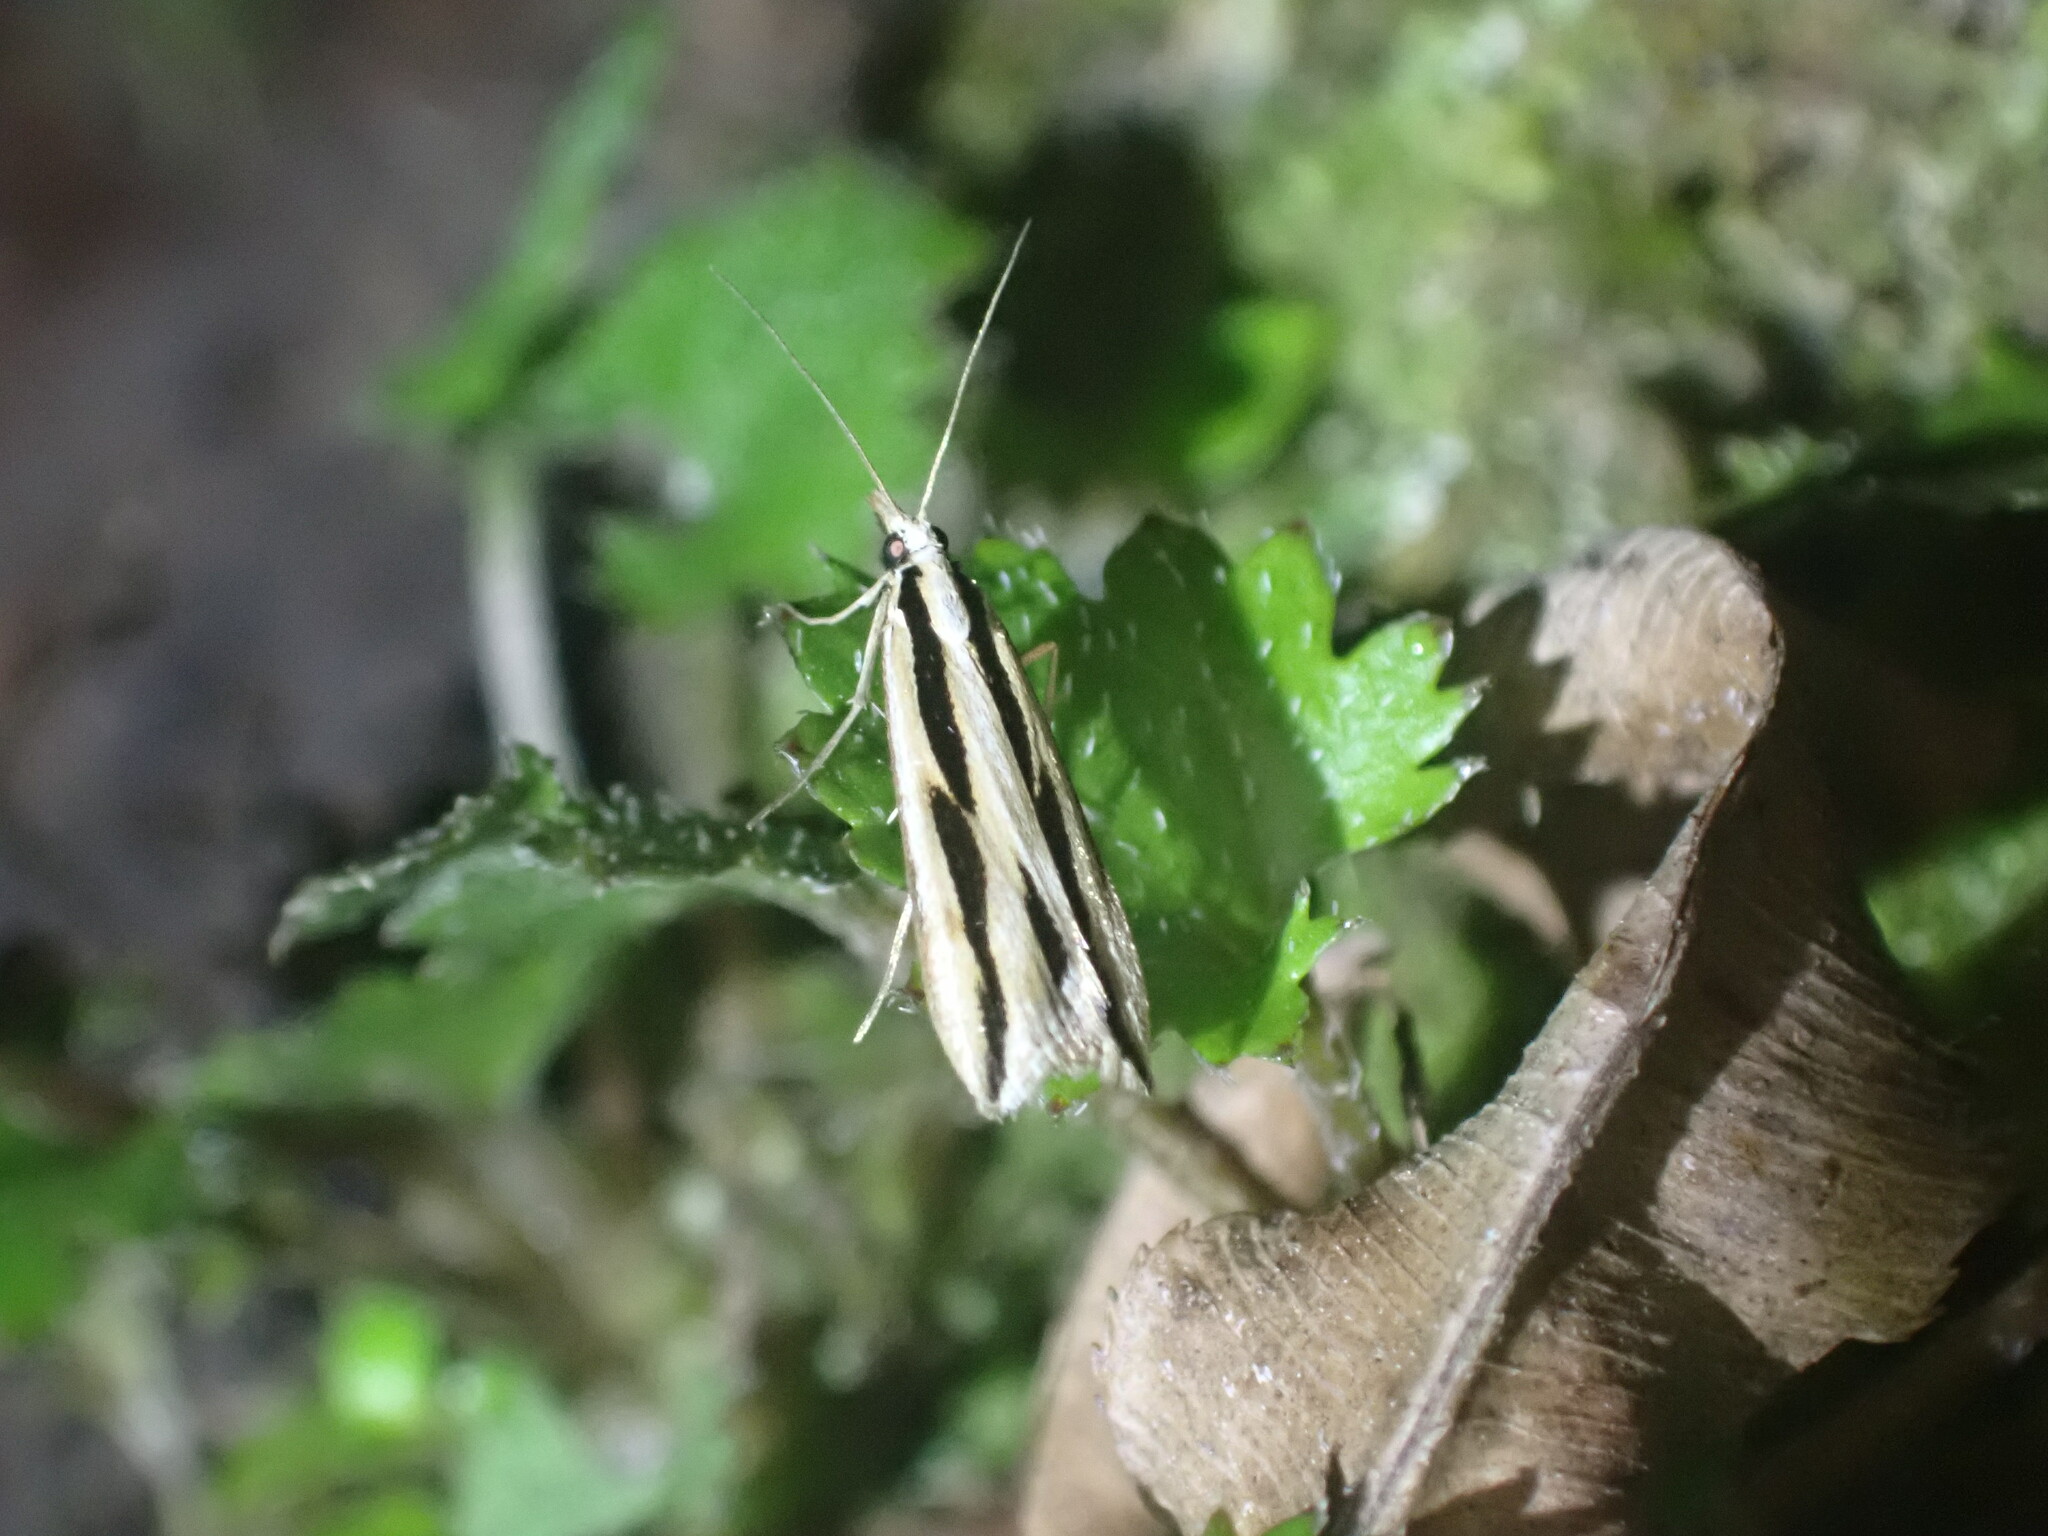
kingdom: Animalia
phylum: Arthropoda
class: Insecta
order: Lepidoptera
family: Crambidae
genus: Eudonia
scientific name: Eudonia trivirgata
